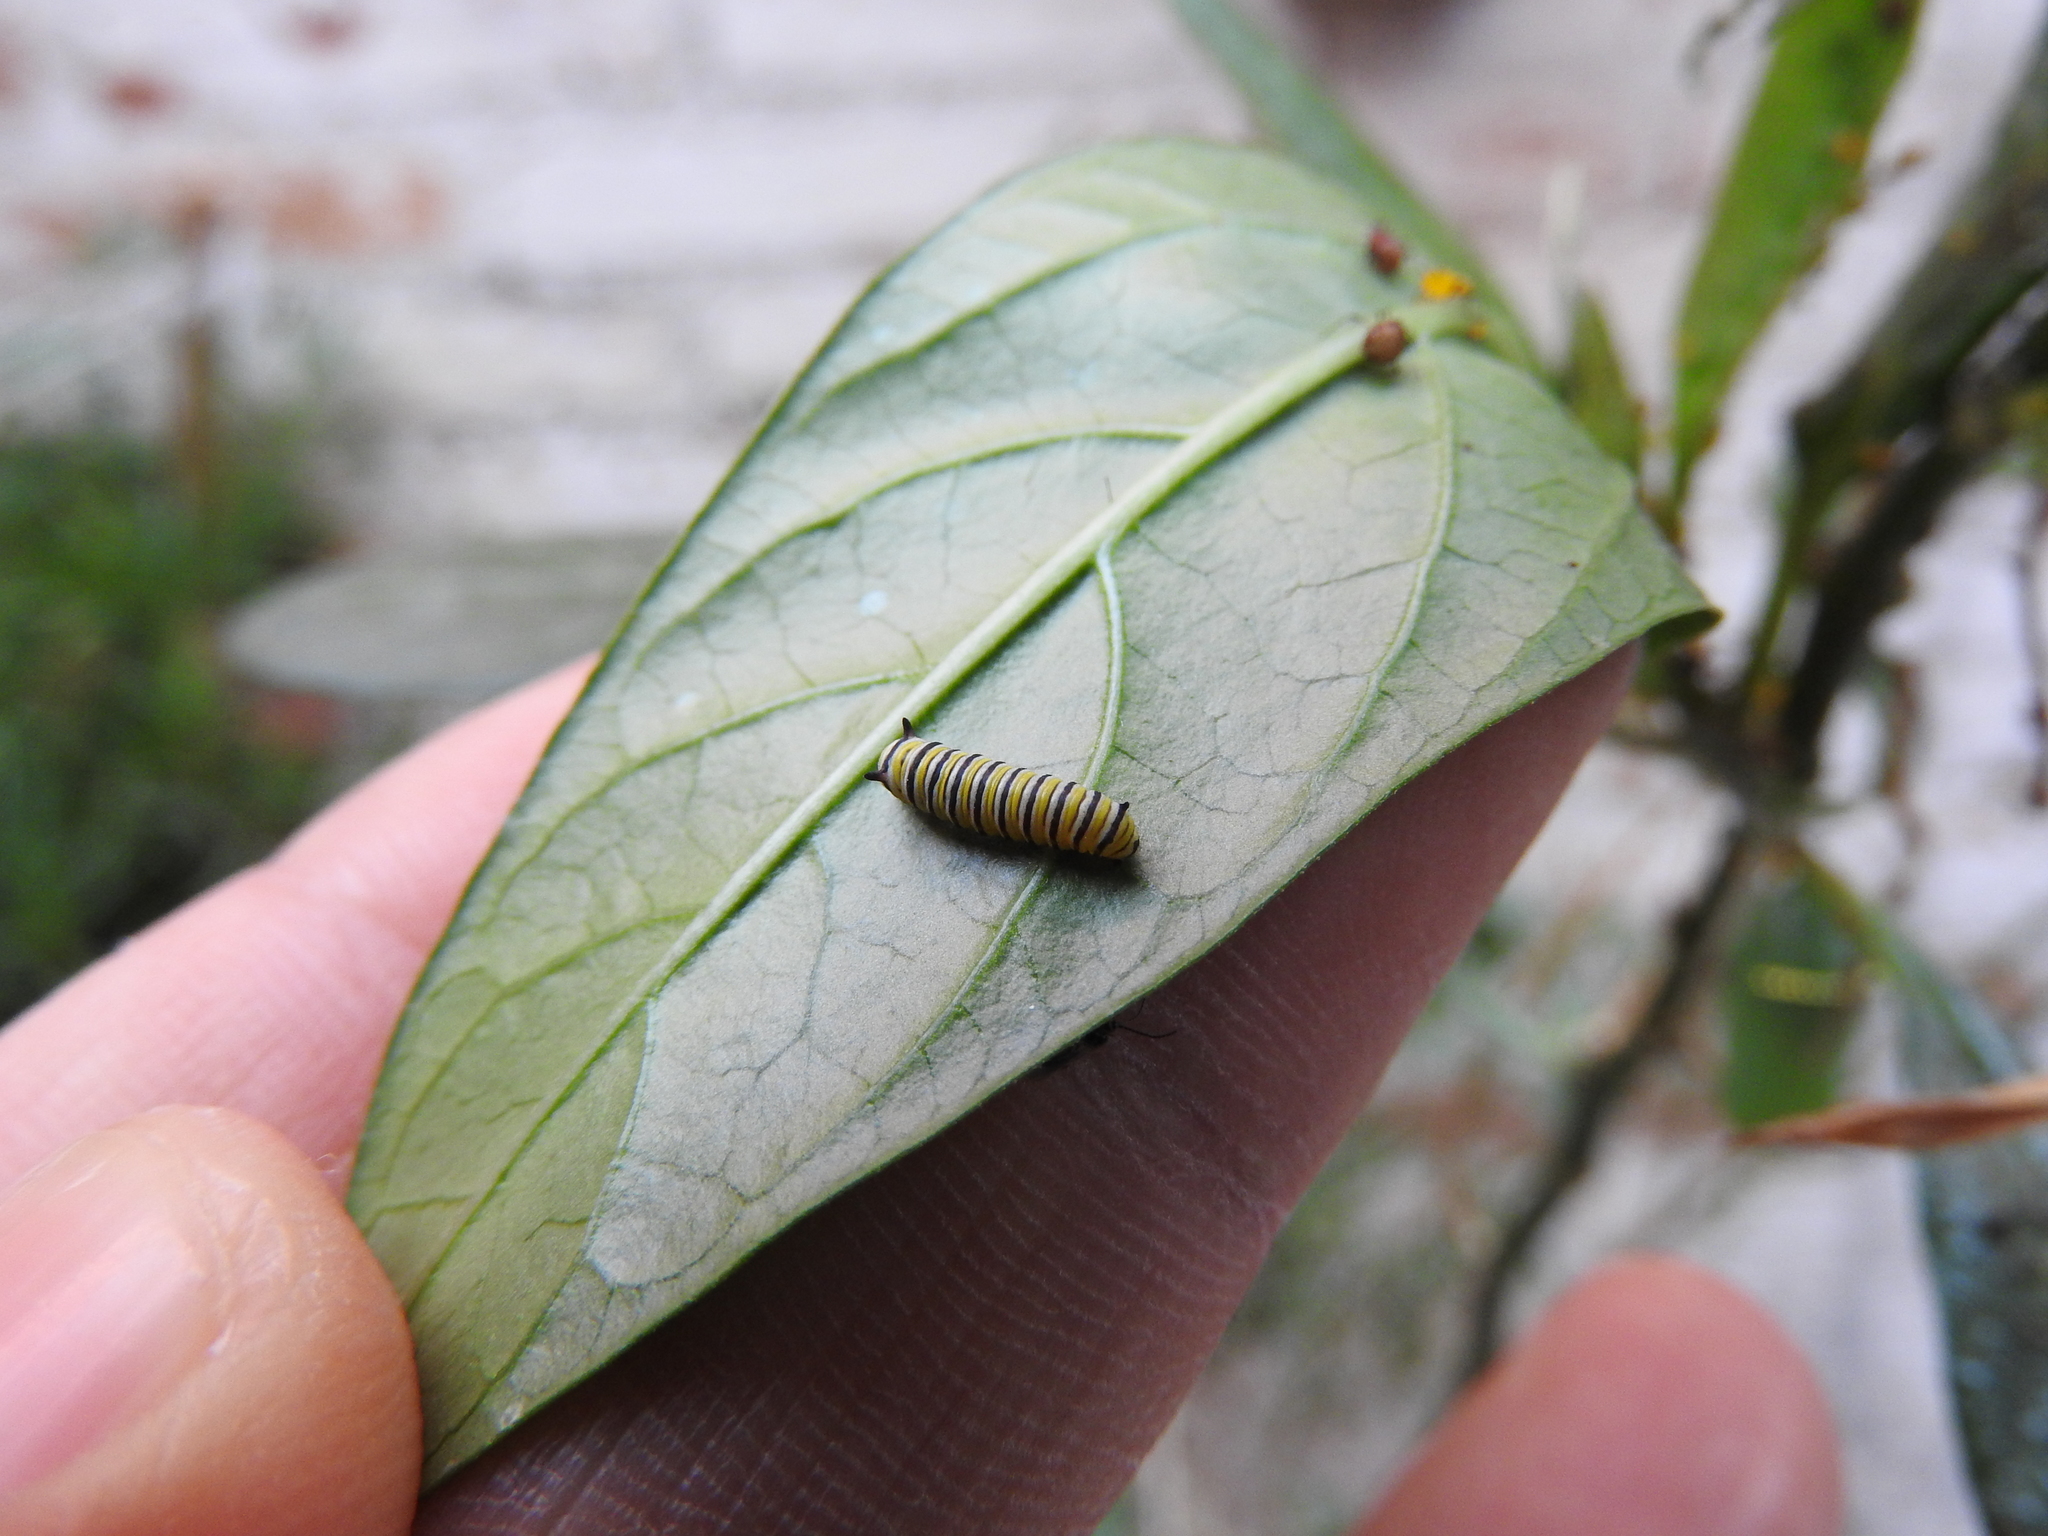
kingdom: Animalia
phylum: Arthropoda
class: Insecta
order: Lepidoptera
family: Nymphalidae
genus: Danaus
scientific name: Danaus plexippus
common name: Monarch
